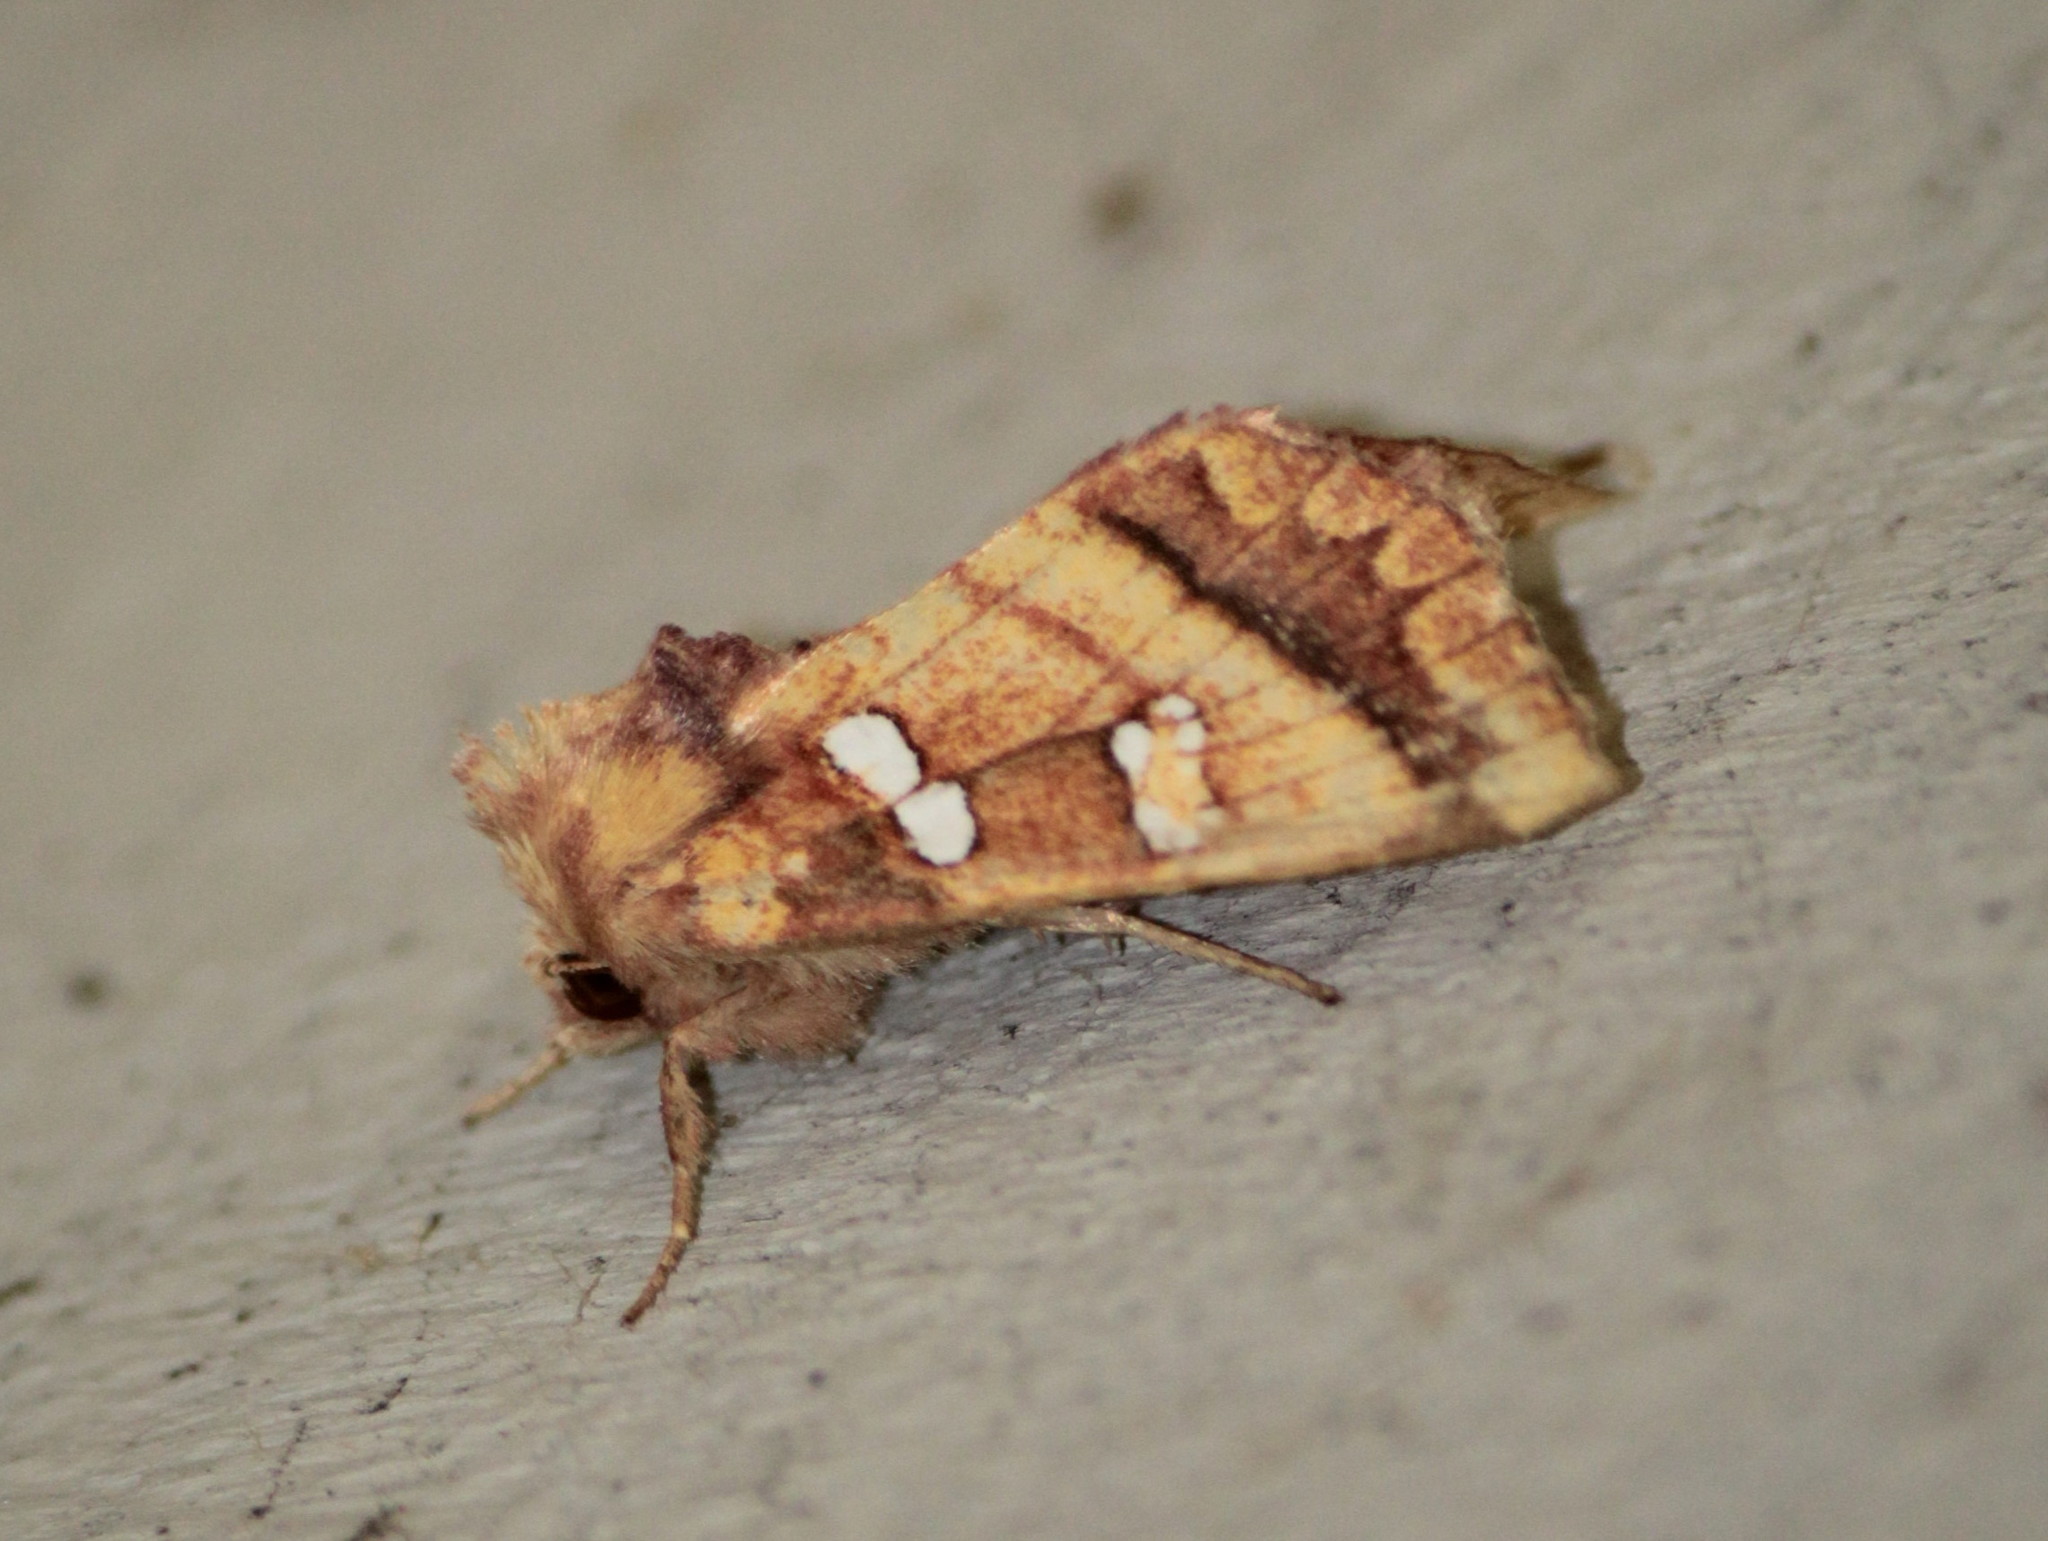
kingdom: Animalia
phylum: Arthropoda
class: Insecta
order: Lepidoptera
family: Noctuidae
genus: Papaipema
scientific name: Papaipema pterisii
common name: Bracken borer moth
